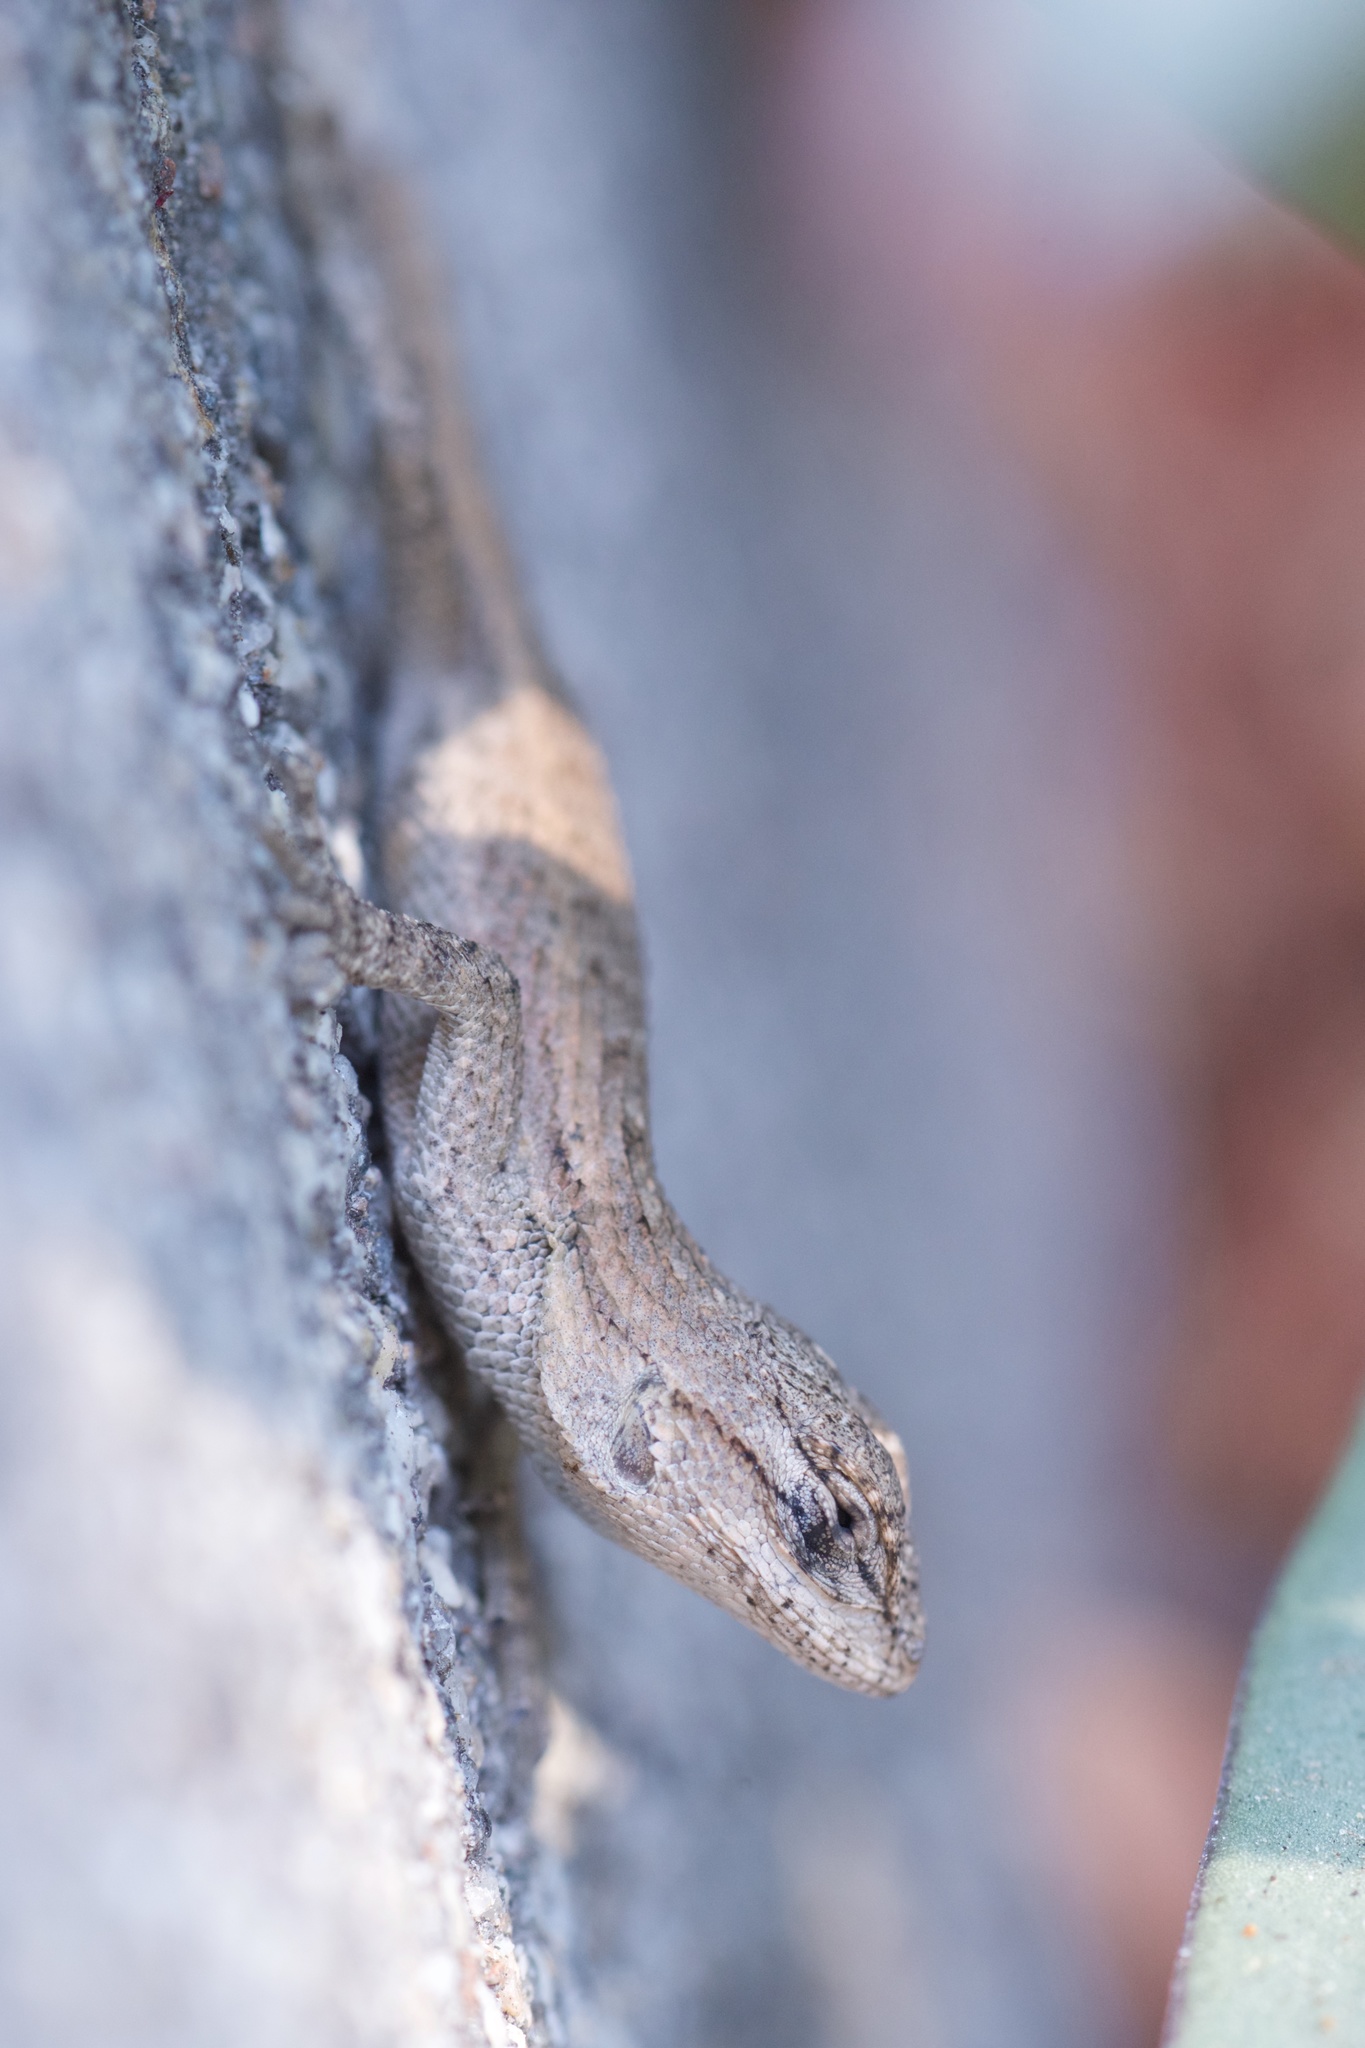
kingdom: Animalia
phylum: Chordata
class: Squamata
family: Phrynosomatidae
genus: Sceloporus
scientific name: Sceloporus occidentalis
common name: Western fence lizard
